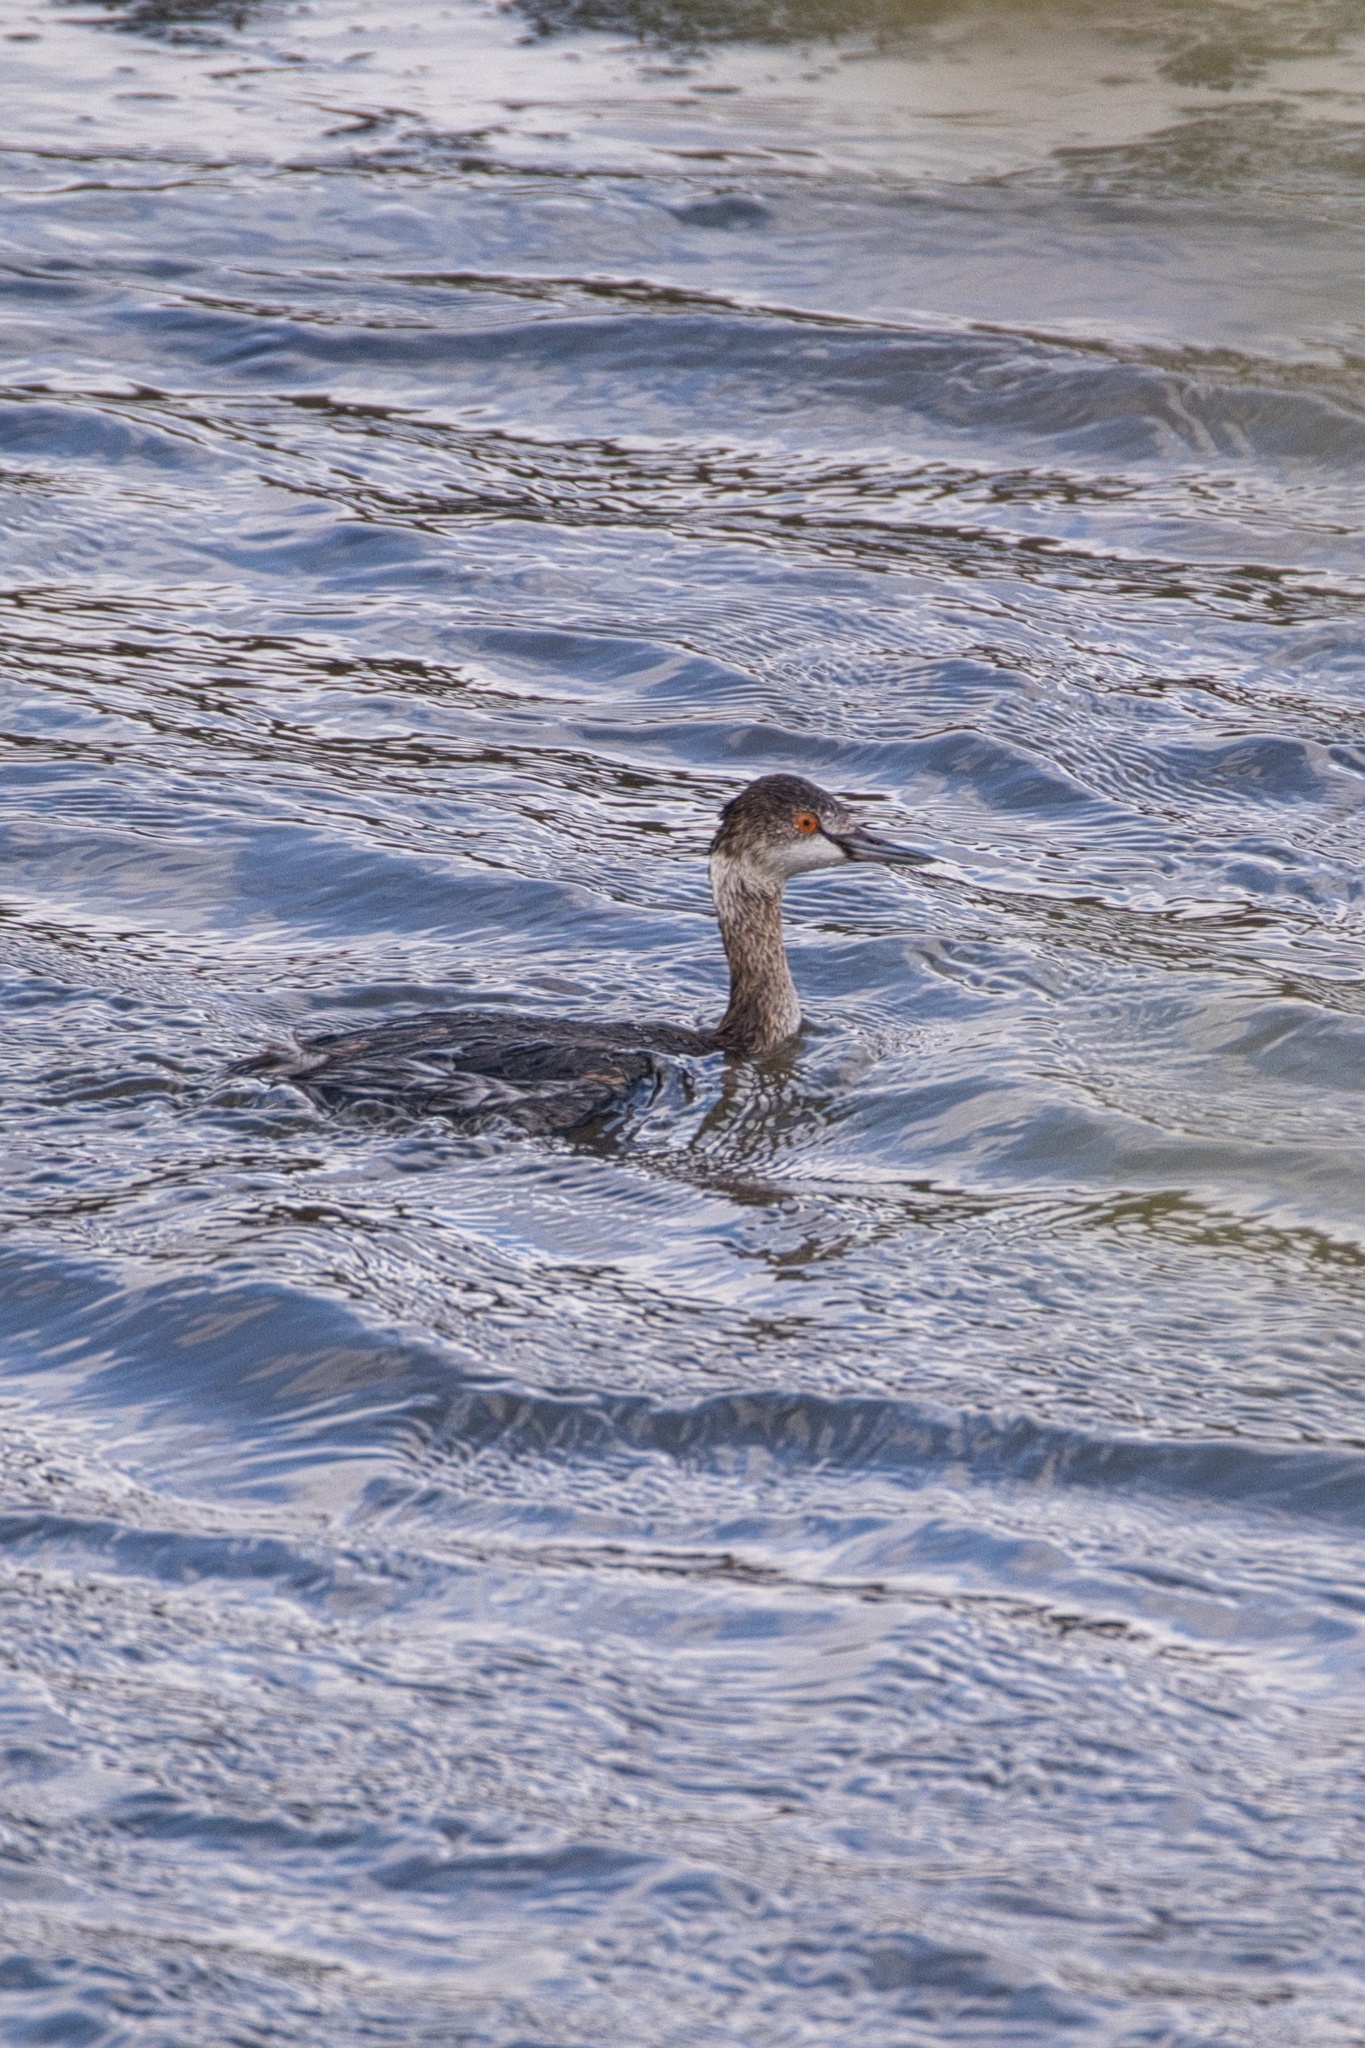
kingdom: Animalia
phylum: Chordata
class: Aves
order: Podicipediformes
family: Podicipedidae
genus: Podiceps
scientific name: Podiceps nigricollis
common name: Black-necked grebe
